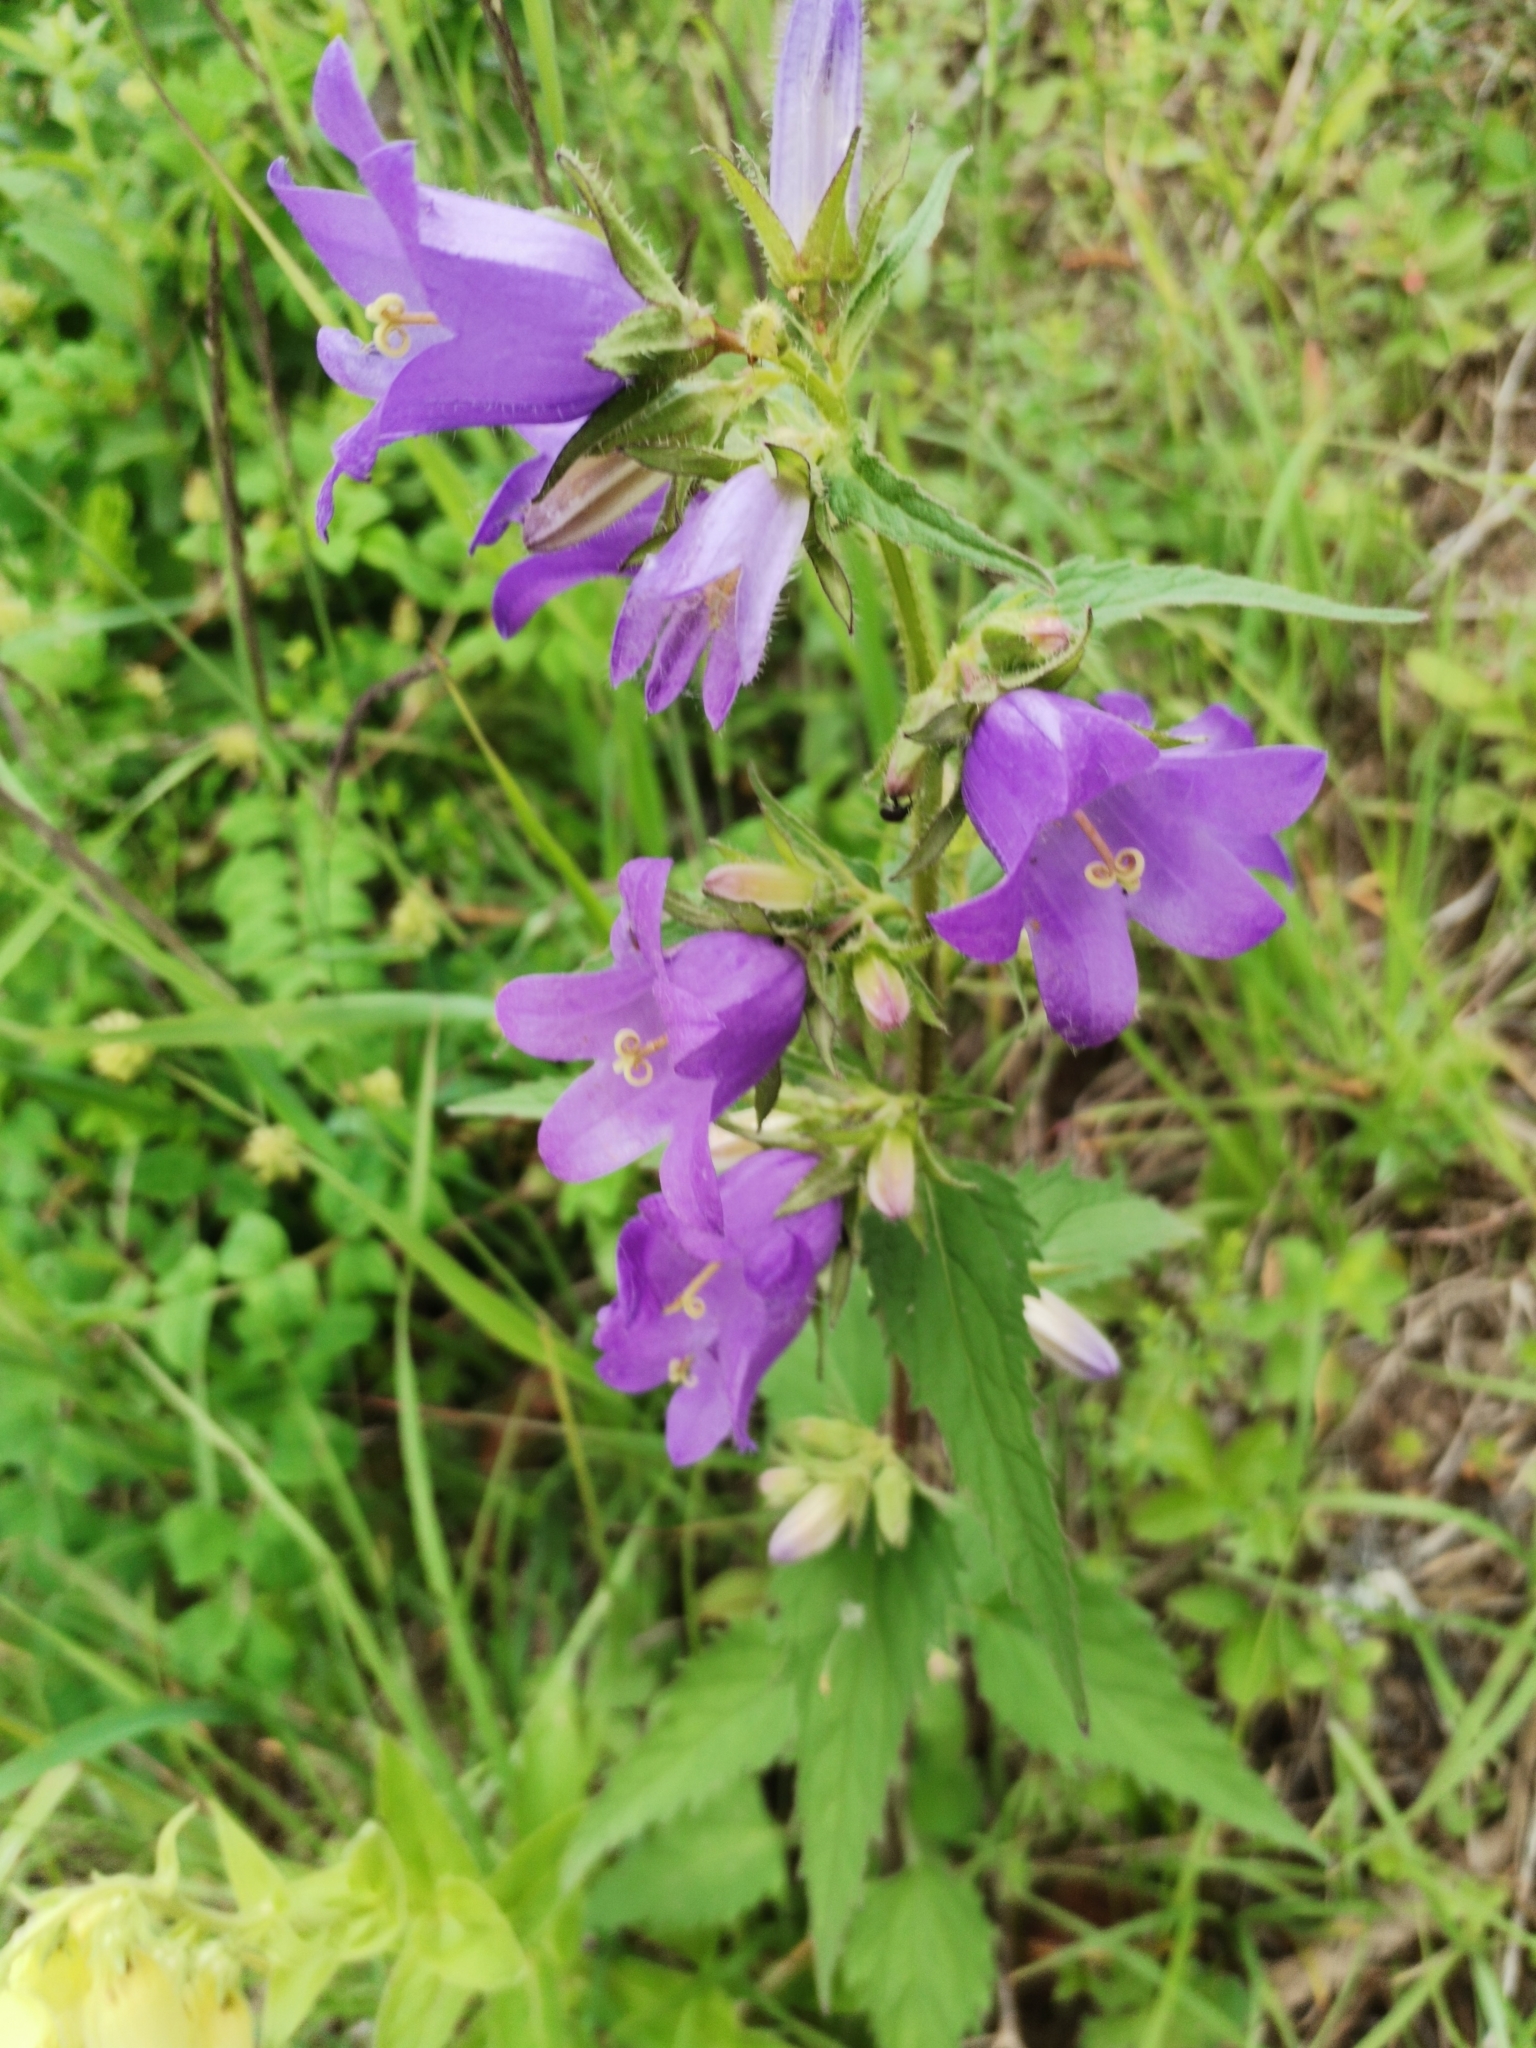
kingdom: Plantae
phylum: Tracheophyta
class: Magnoliopsida
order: Asterales
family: Campanulaceae
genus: Campanula
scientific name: Campanula trachelium
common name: Nettle-leaved bellflower
